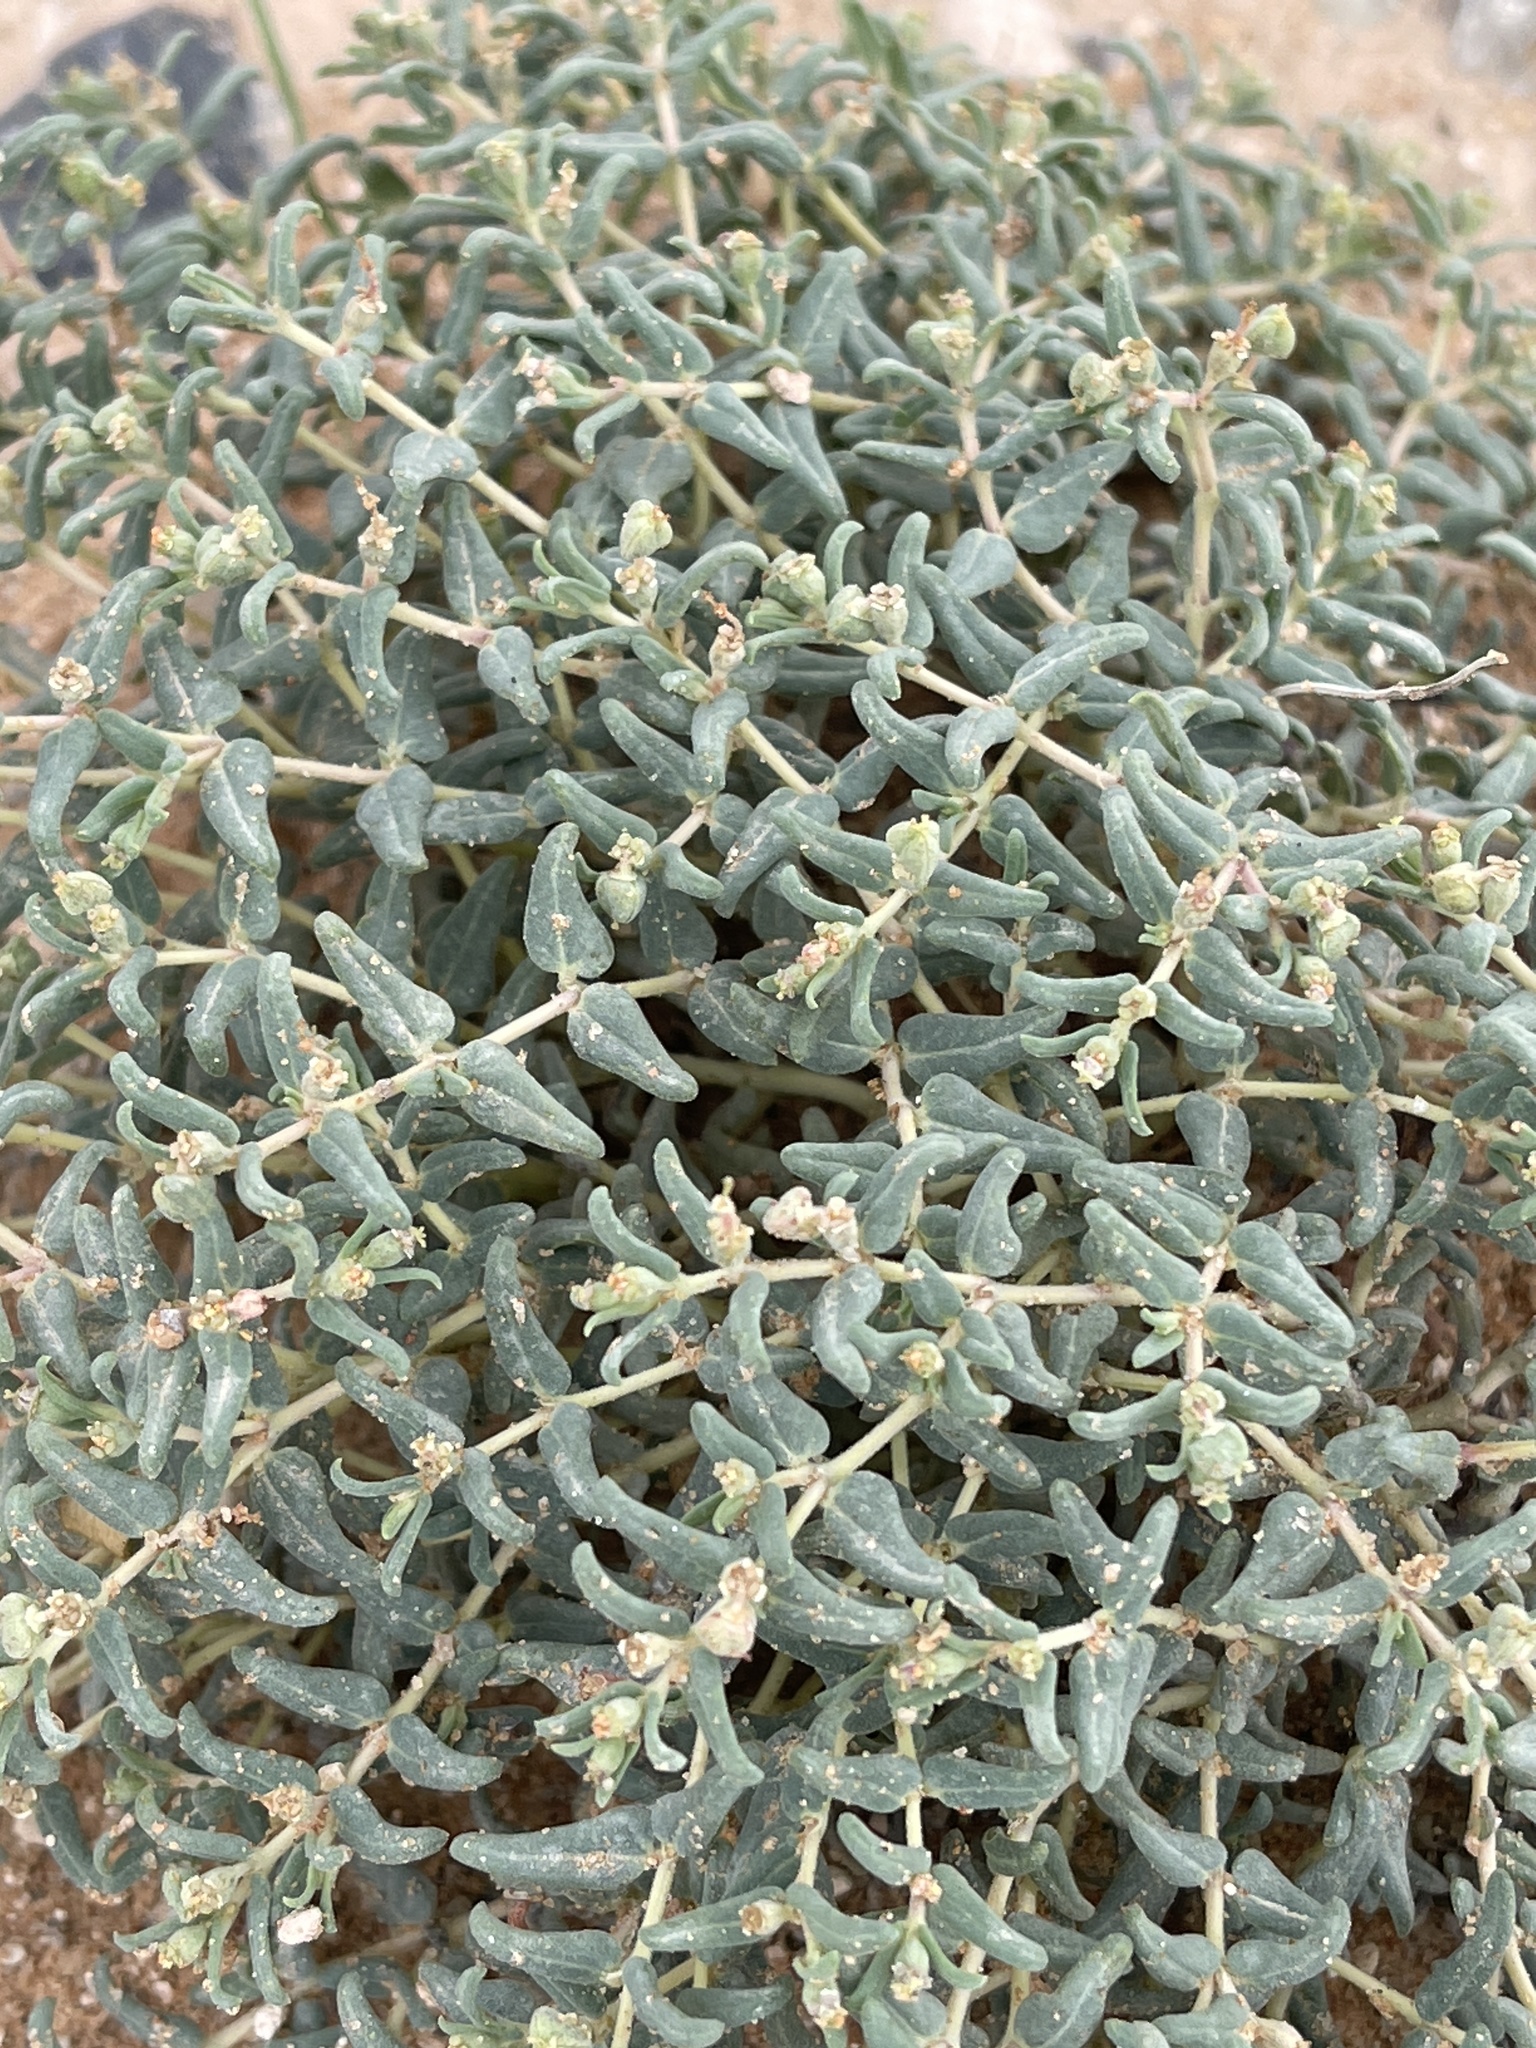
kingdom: Plantae
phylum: Tracheophyta
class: Magnoliopsida
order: Malpighiales
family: Euphorbiaceae
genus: Euphorbia
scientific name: Euphorbia lata
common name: Hoary euphorbia
